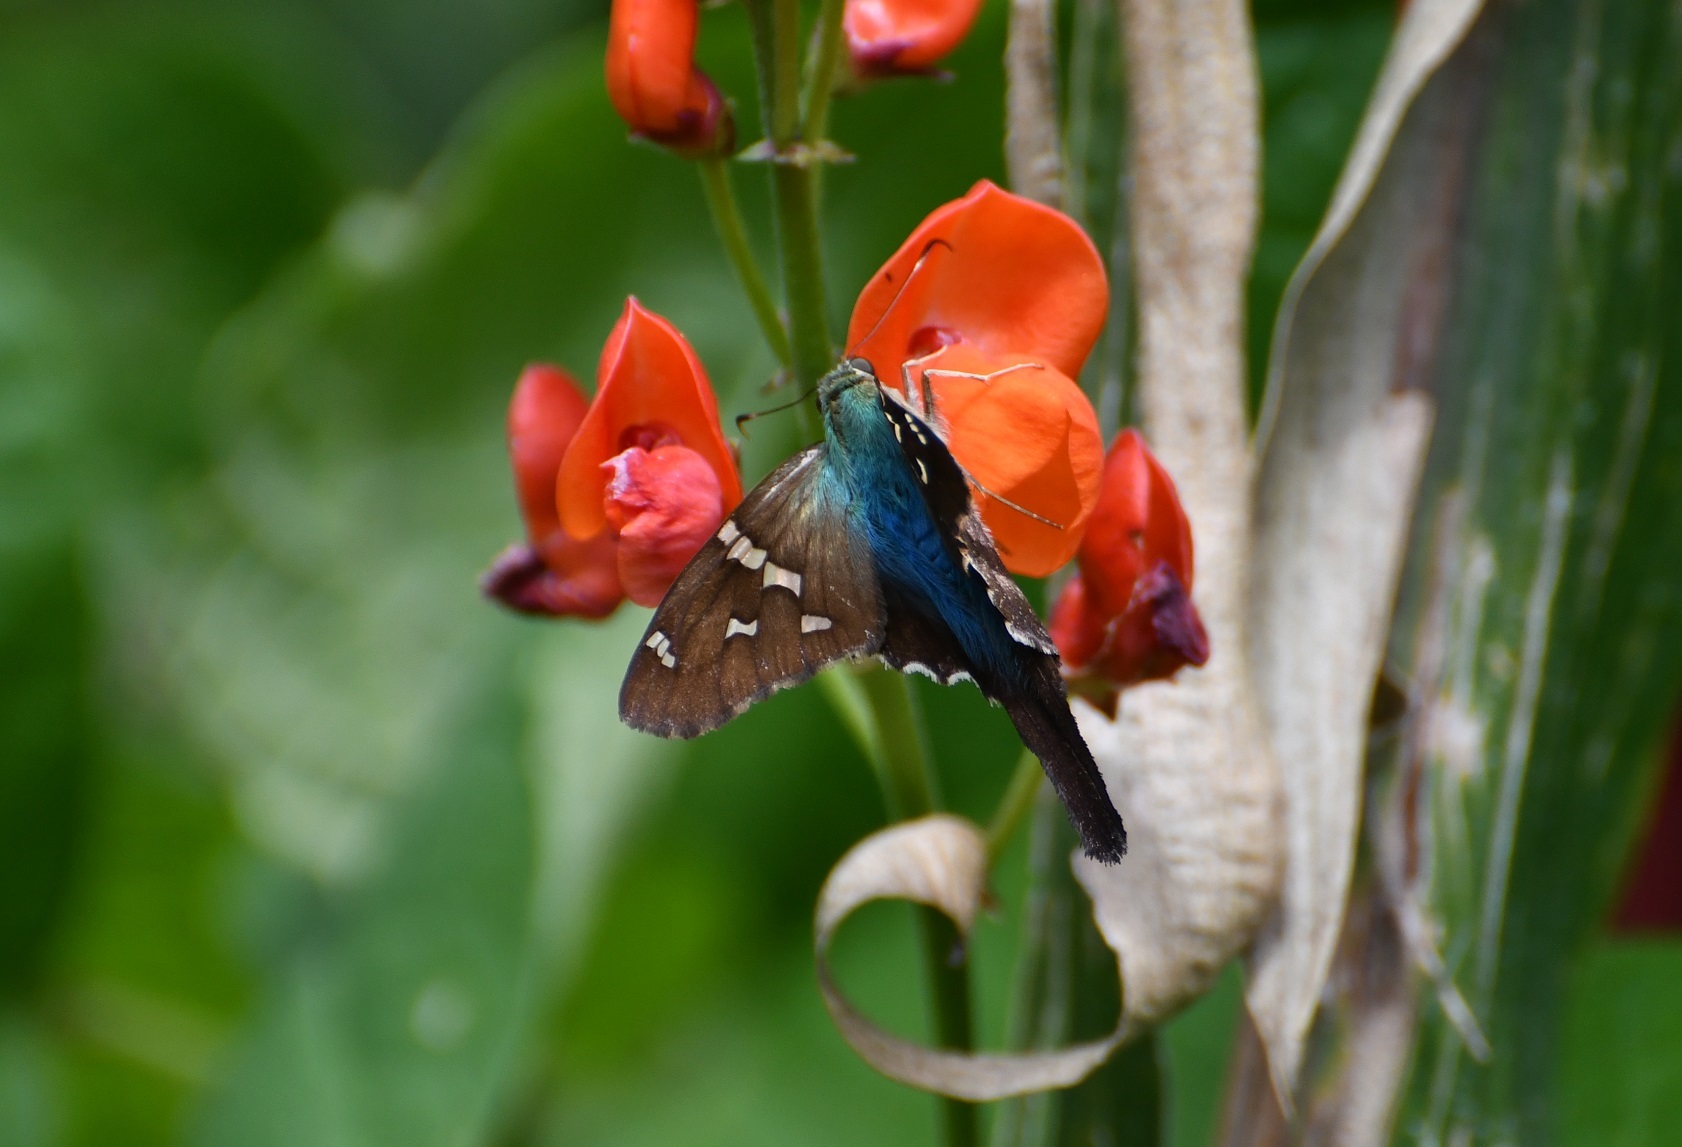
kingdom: Animalia
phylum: Arthropoda
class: Insecta
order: Lepidoptera
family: Hesperiidae
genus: Urbanus
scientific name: Urbanus viterboana
